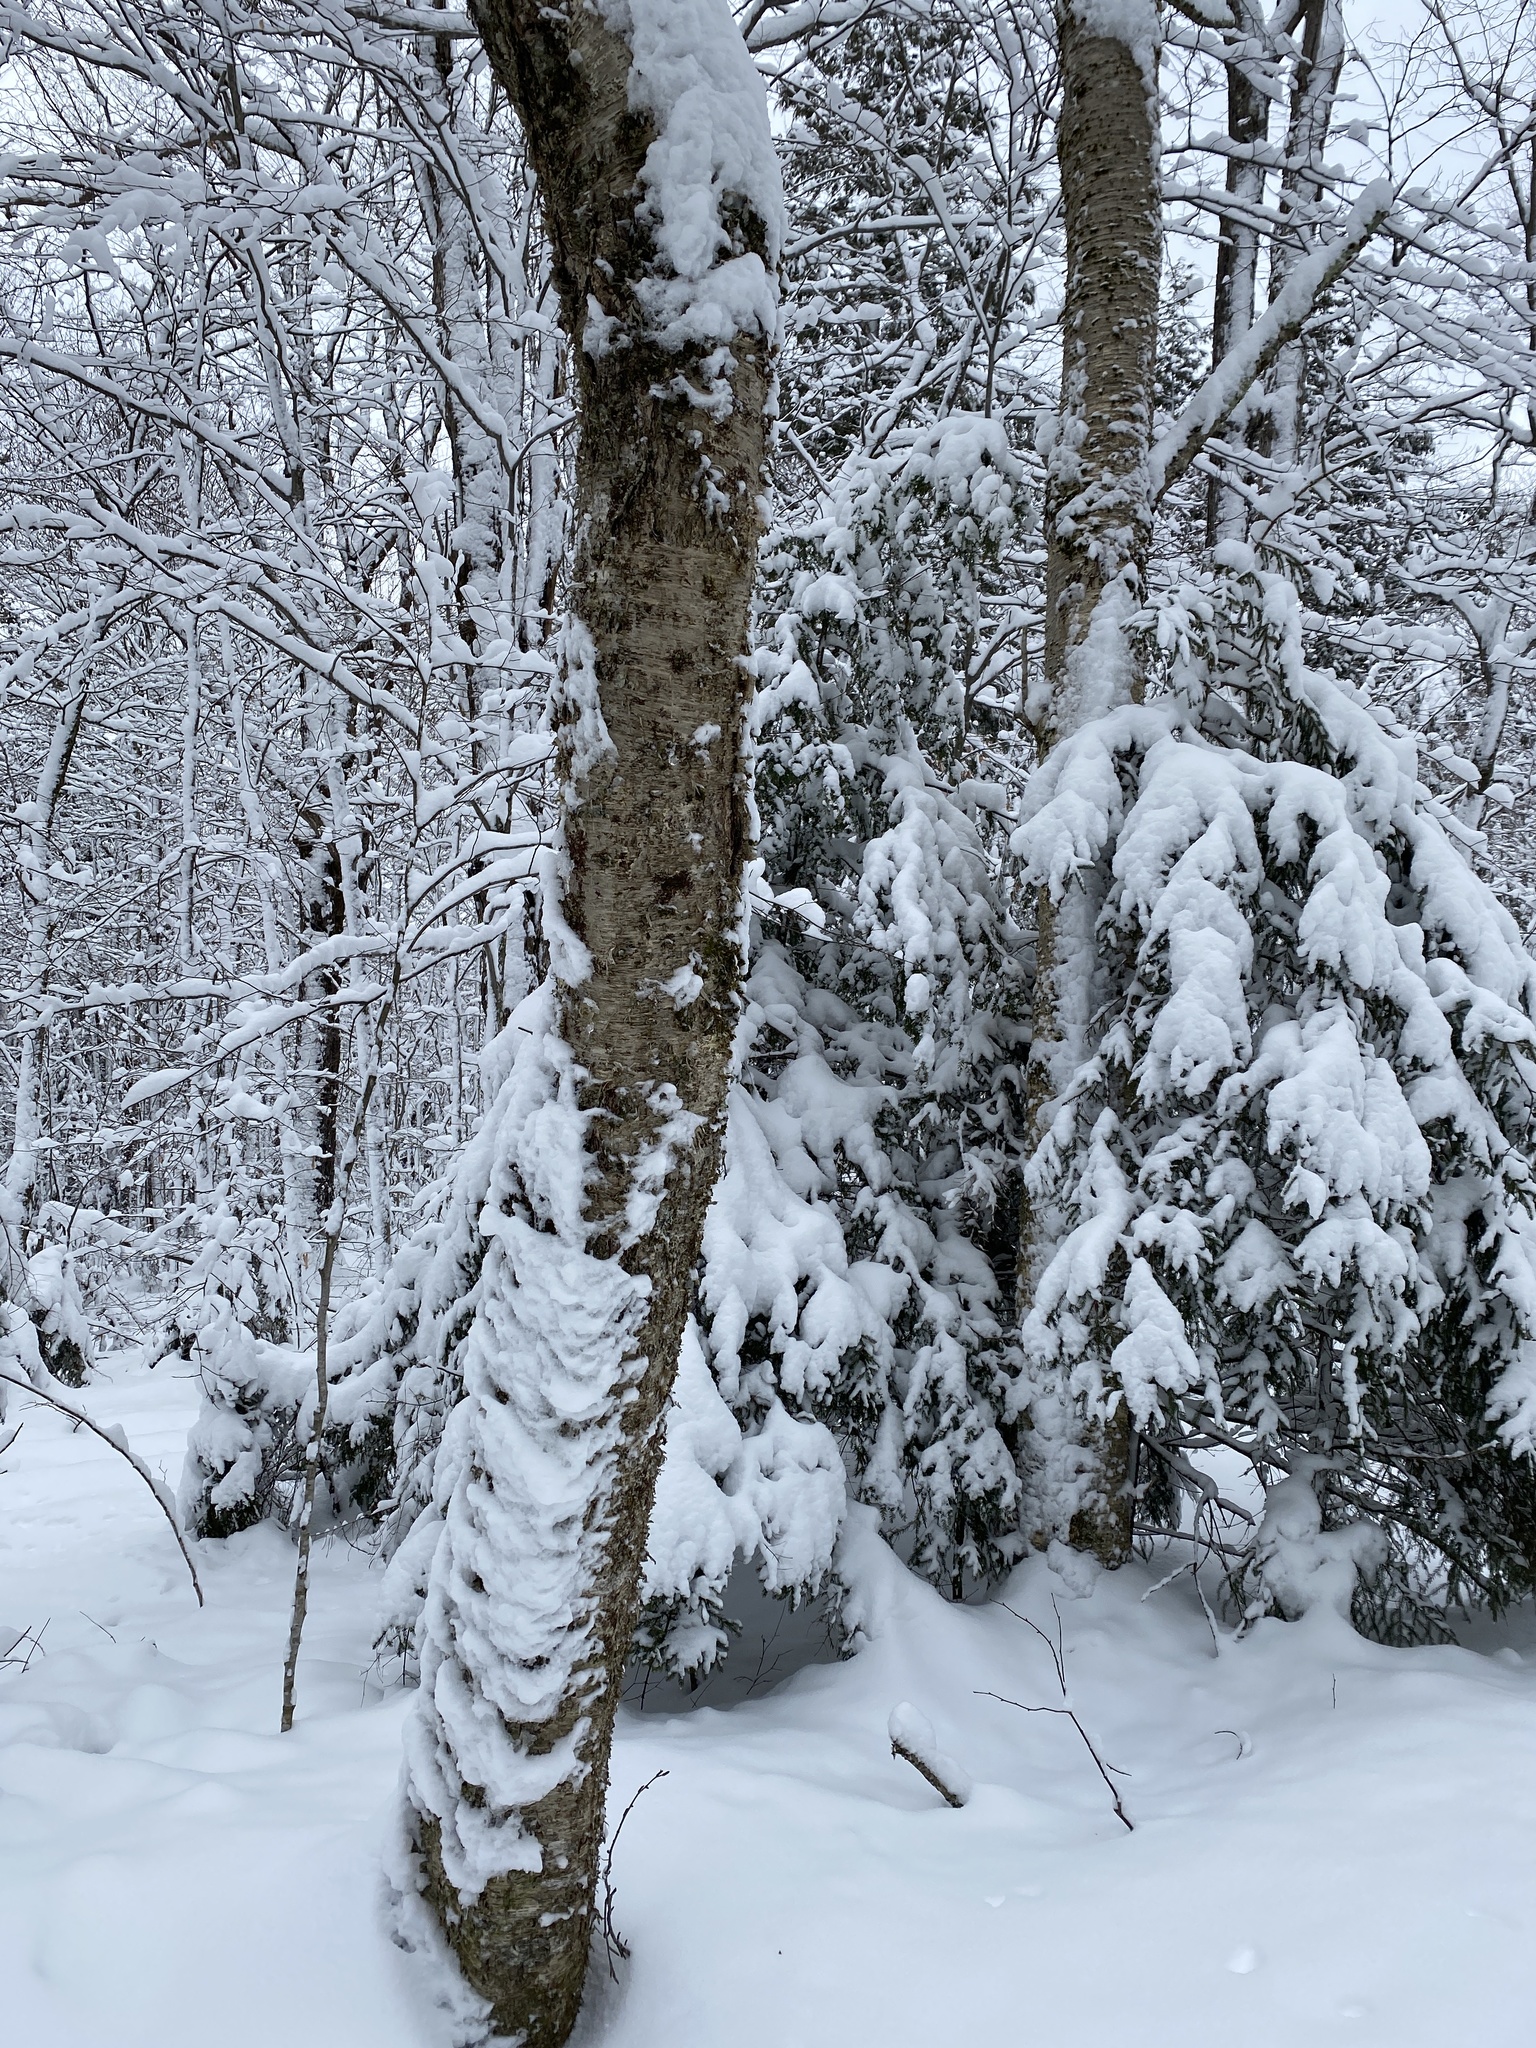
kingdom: Plantae
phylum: Tracheophyta
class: Magnoliopsida
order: Fagales
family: Betulaceae
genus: Betula
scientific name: Betula alleghaniensis
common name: Yellow birch
